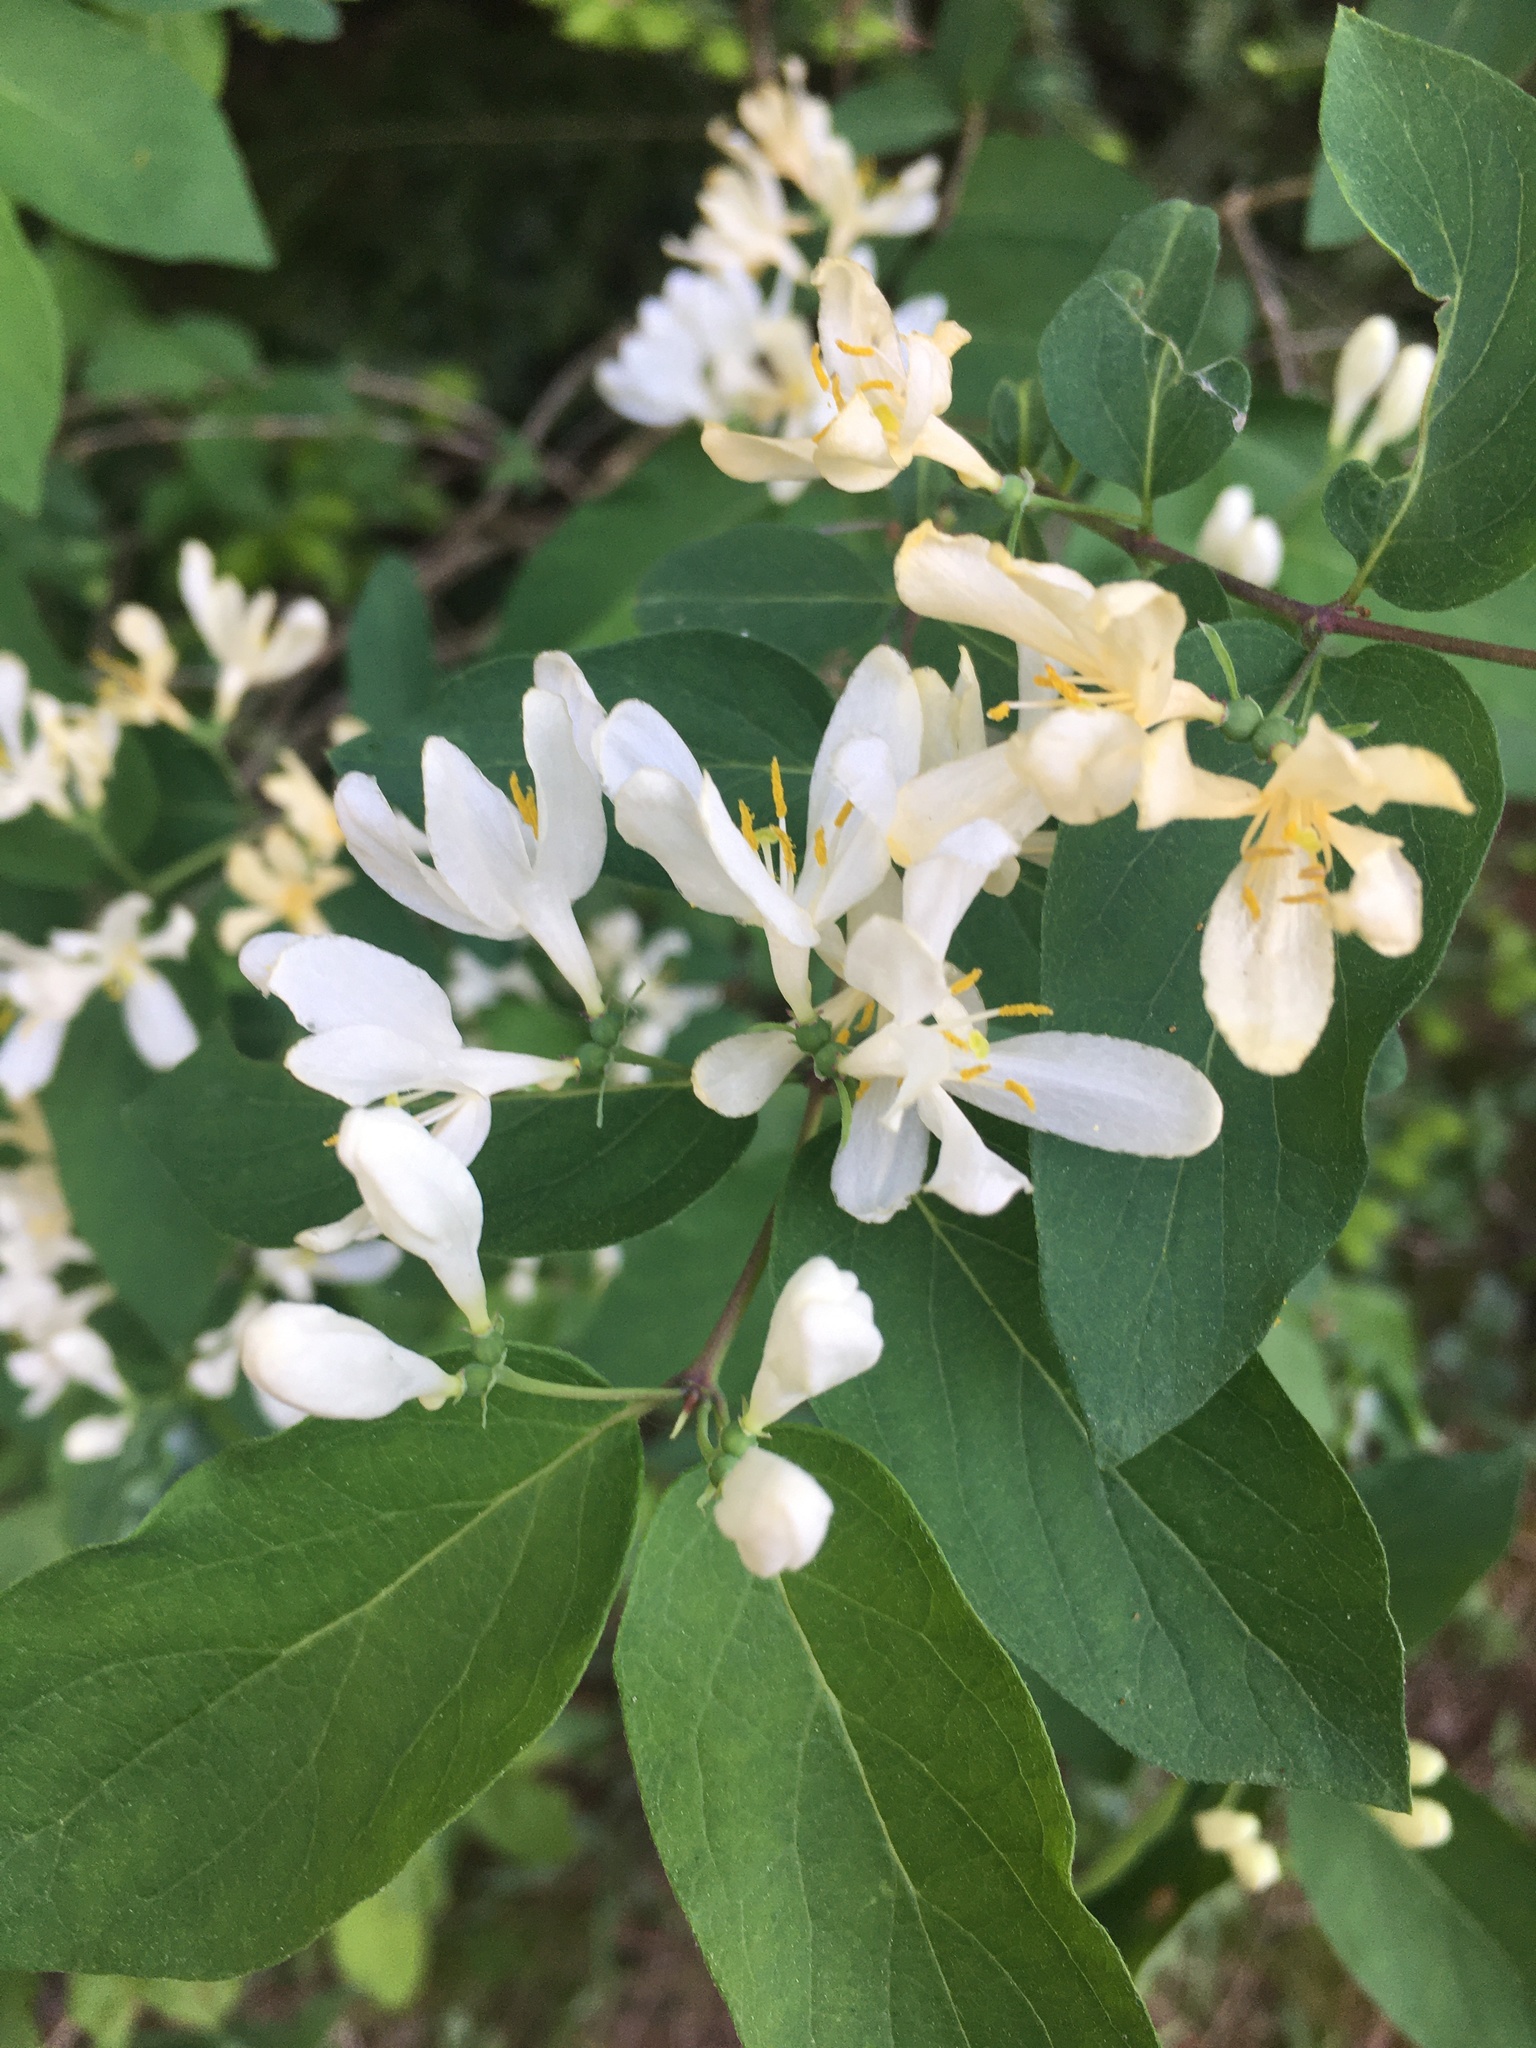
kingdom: Plantae
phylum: Tracheophyta
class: Magnoliopsida
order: Dipsacales
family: Caprifoliaceae
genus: Lonicera
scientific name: Lonicera morrowii
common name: Morrow's honeysuckle
